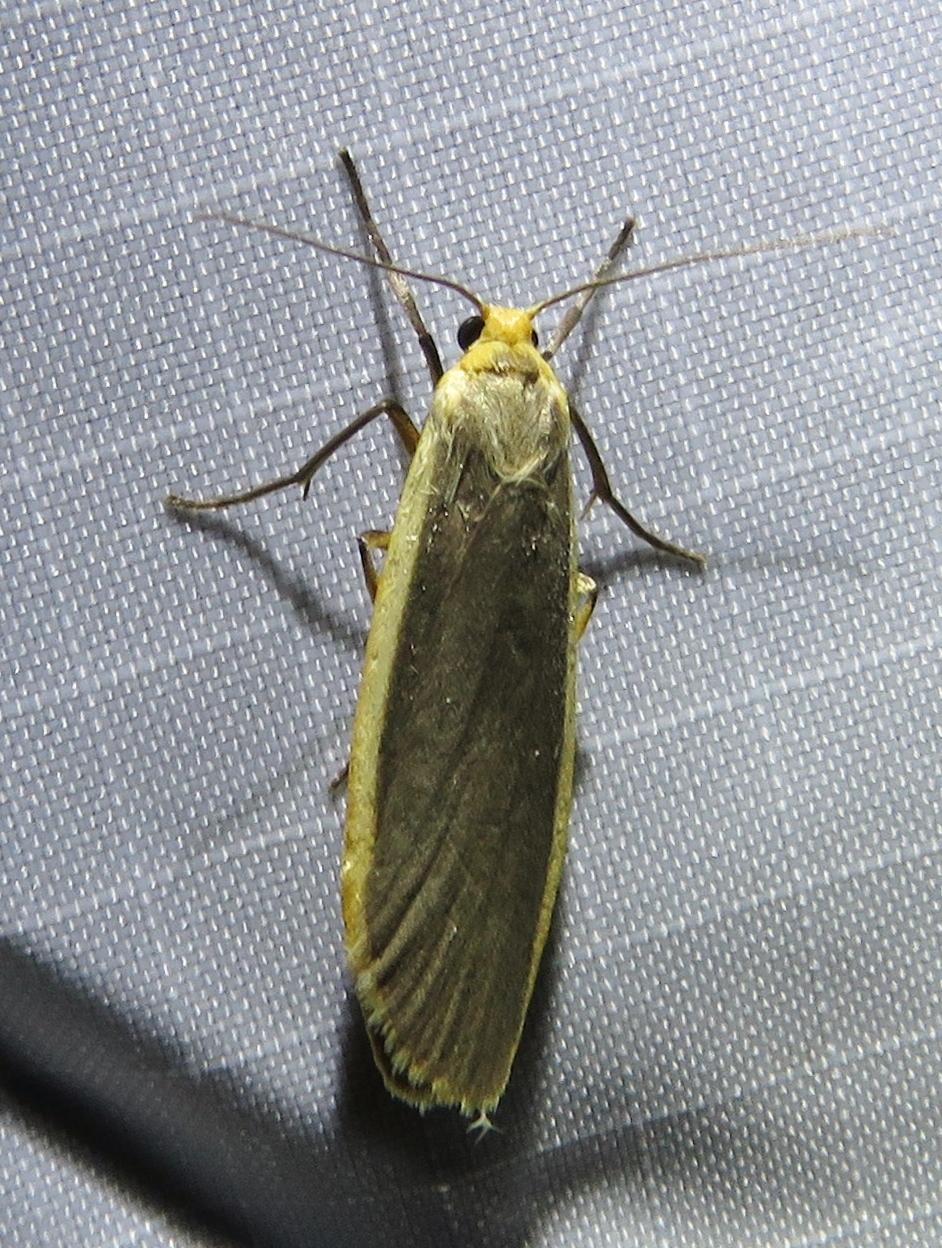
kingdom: Animalia
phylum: Arthropoda
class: Insecta
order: Lepidoptera
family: Erebidae
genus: Nyea
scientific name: Nyea lurideola
